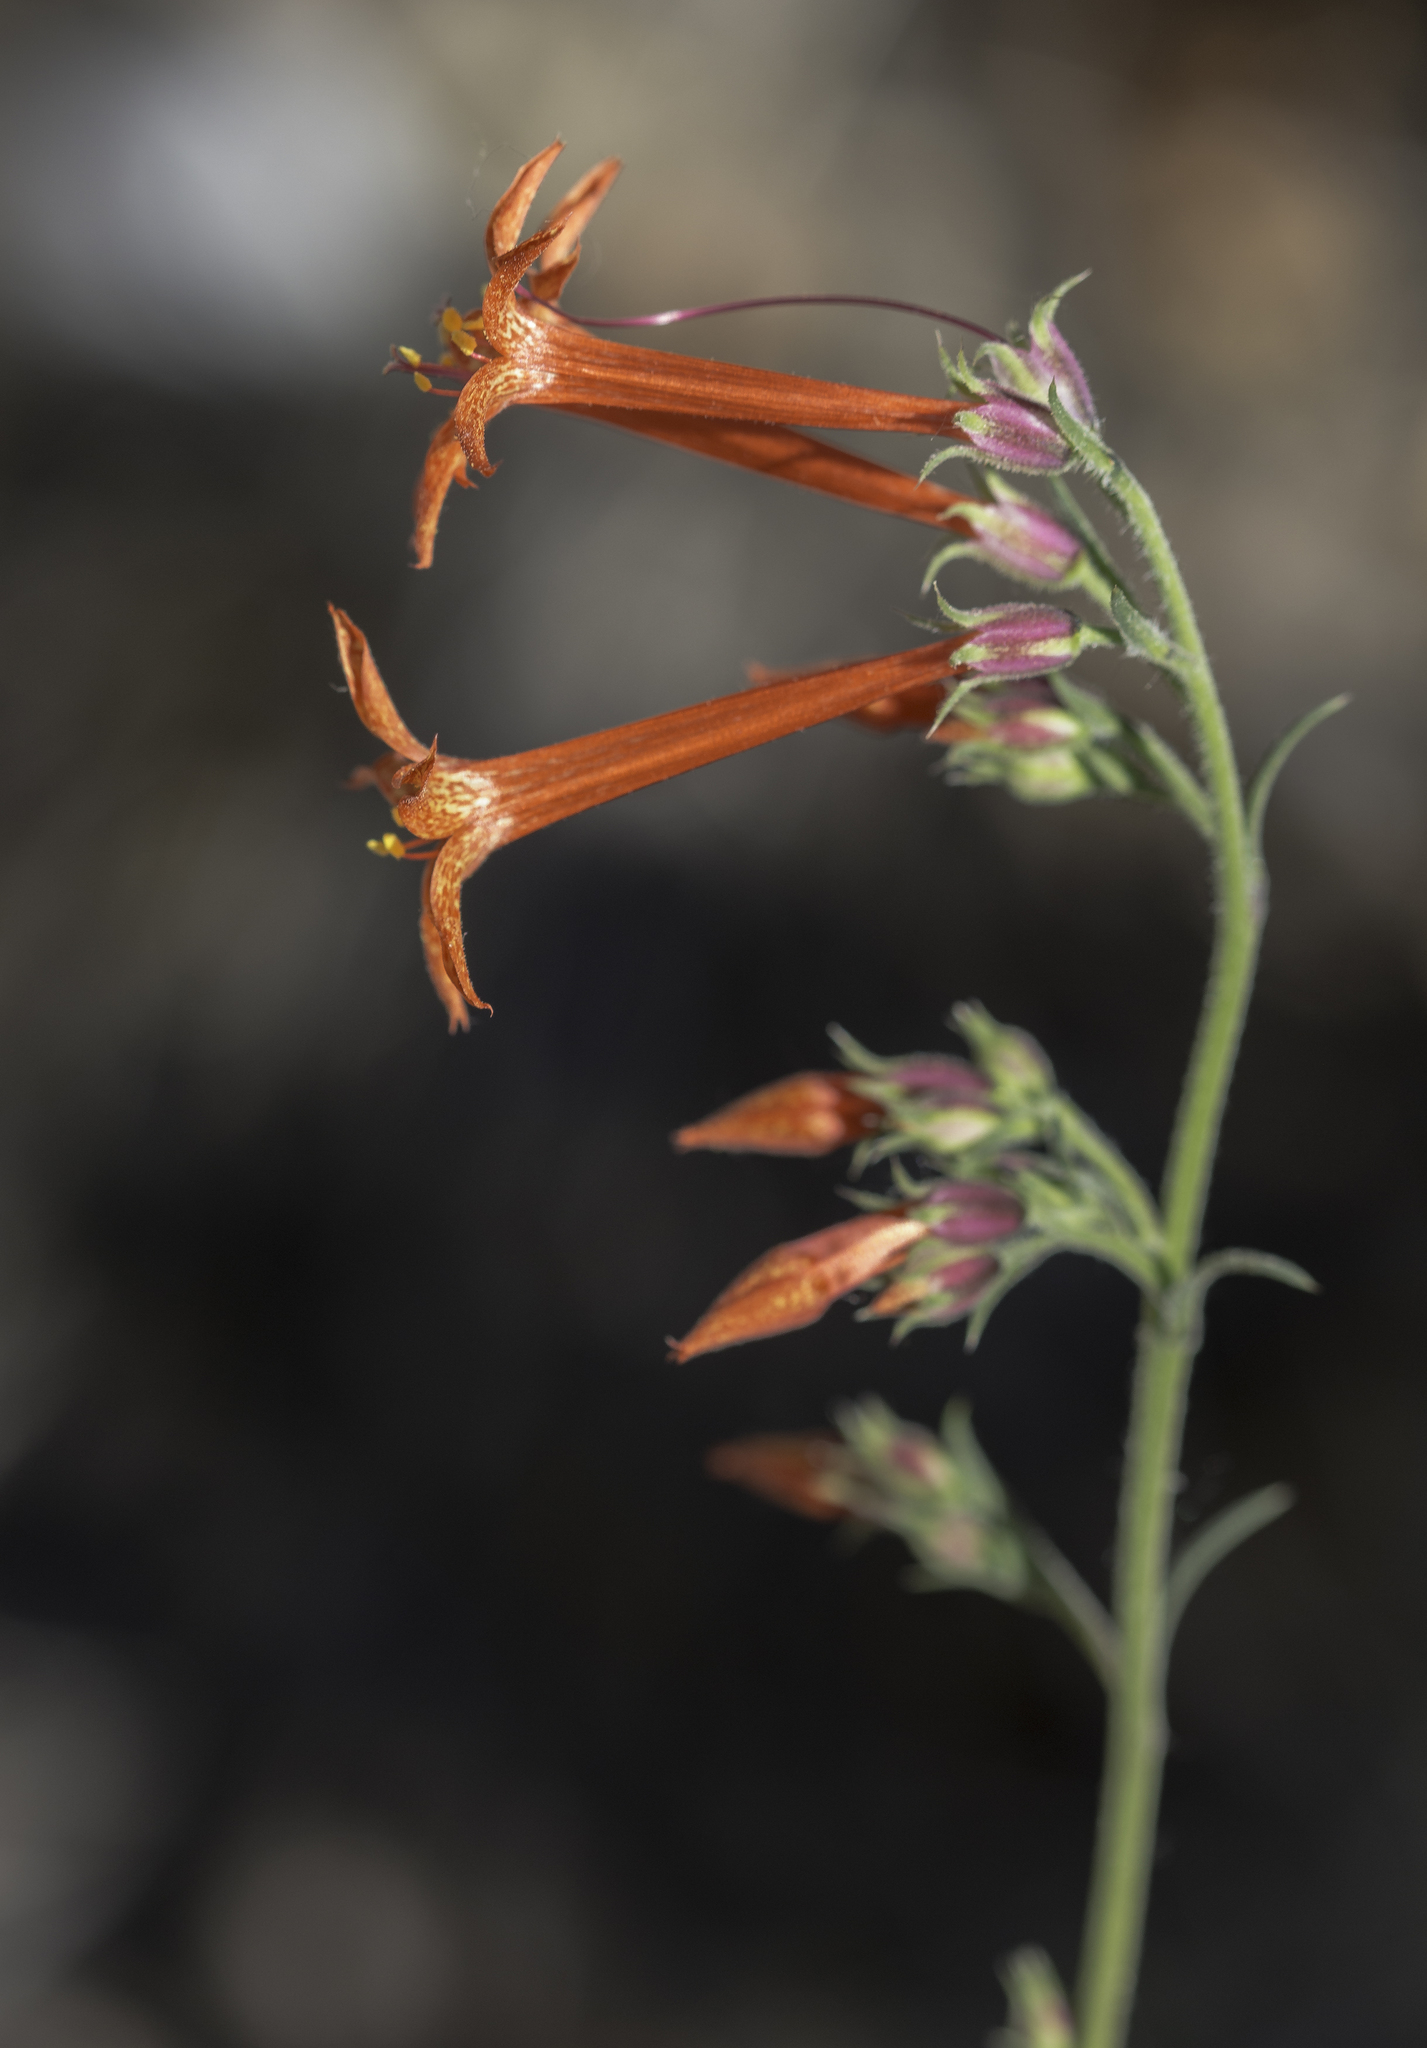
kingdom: Plantae
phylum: Tracheophyta
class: Magnoliopsida
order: Ericales
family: Polemoniaceae
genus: Ipomopsis
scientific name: Ipomopsis aggregata
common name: Scarlet gilia
